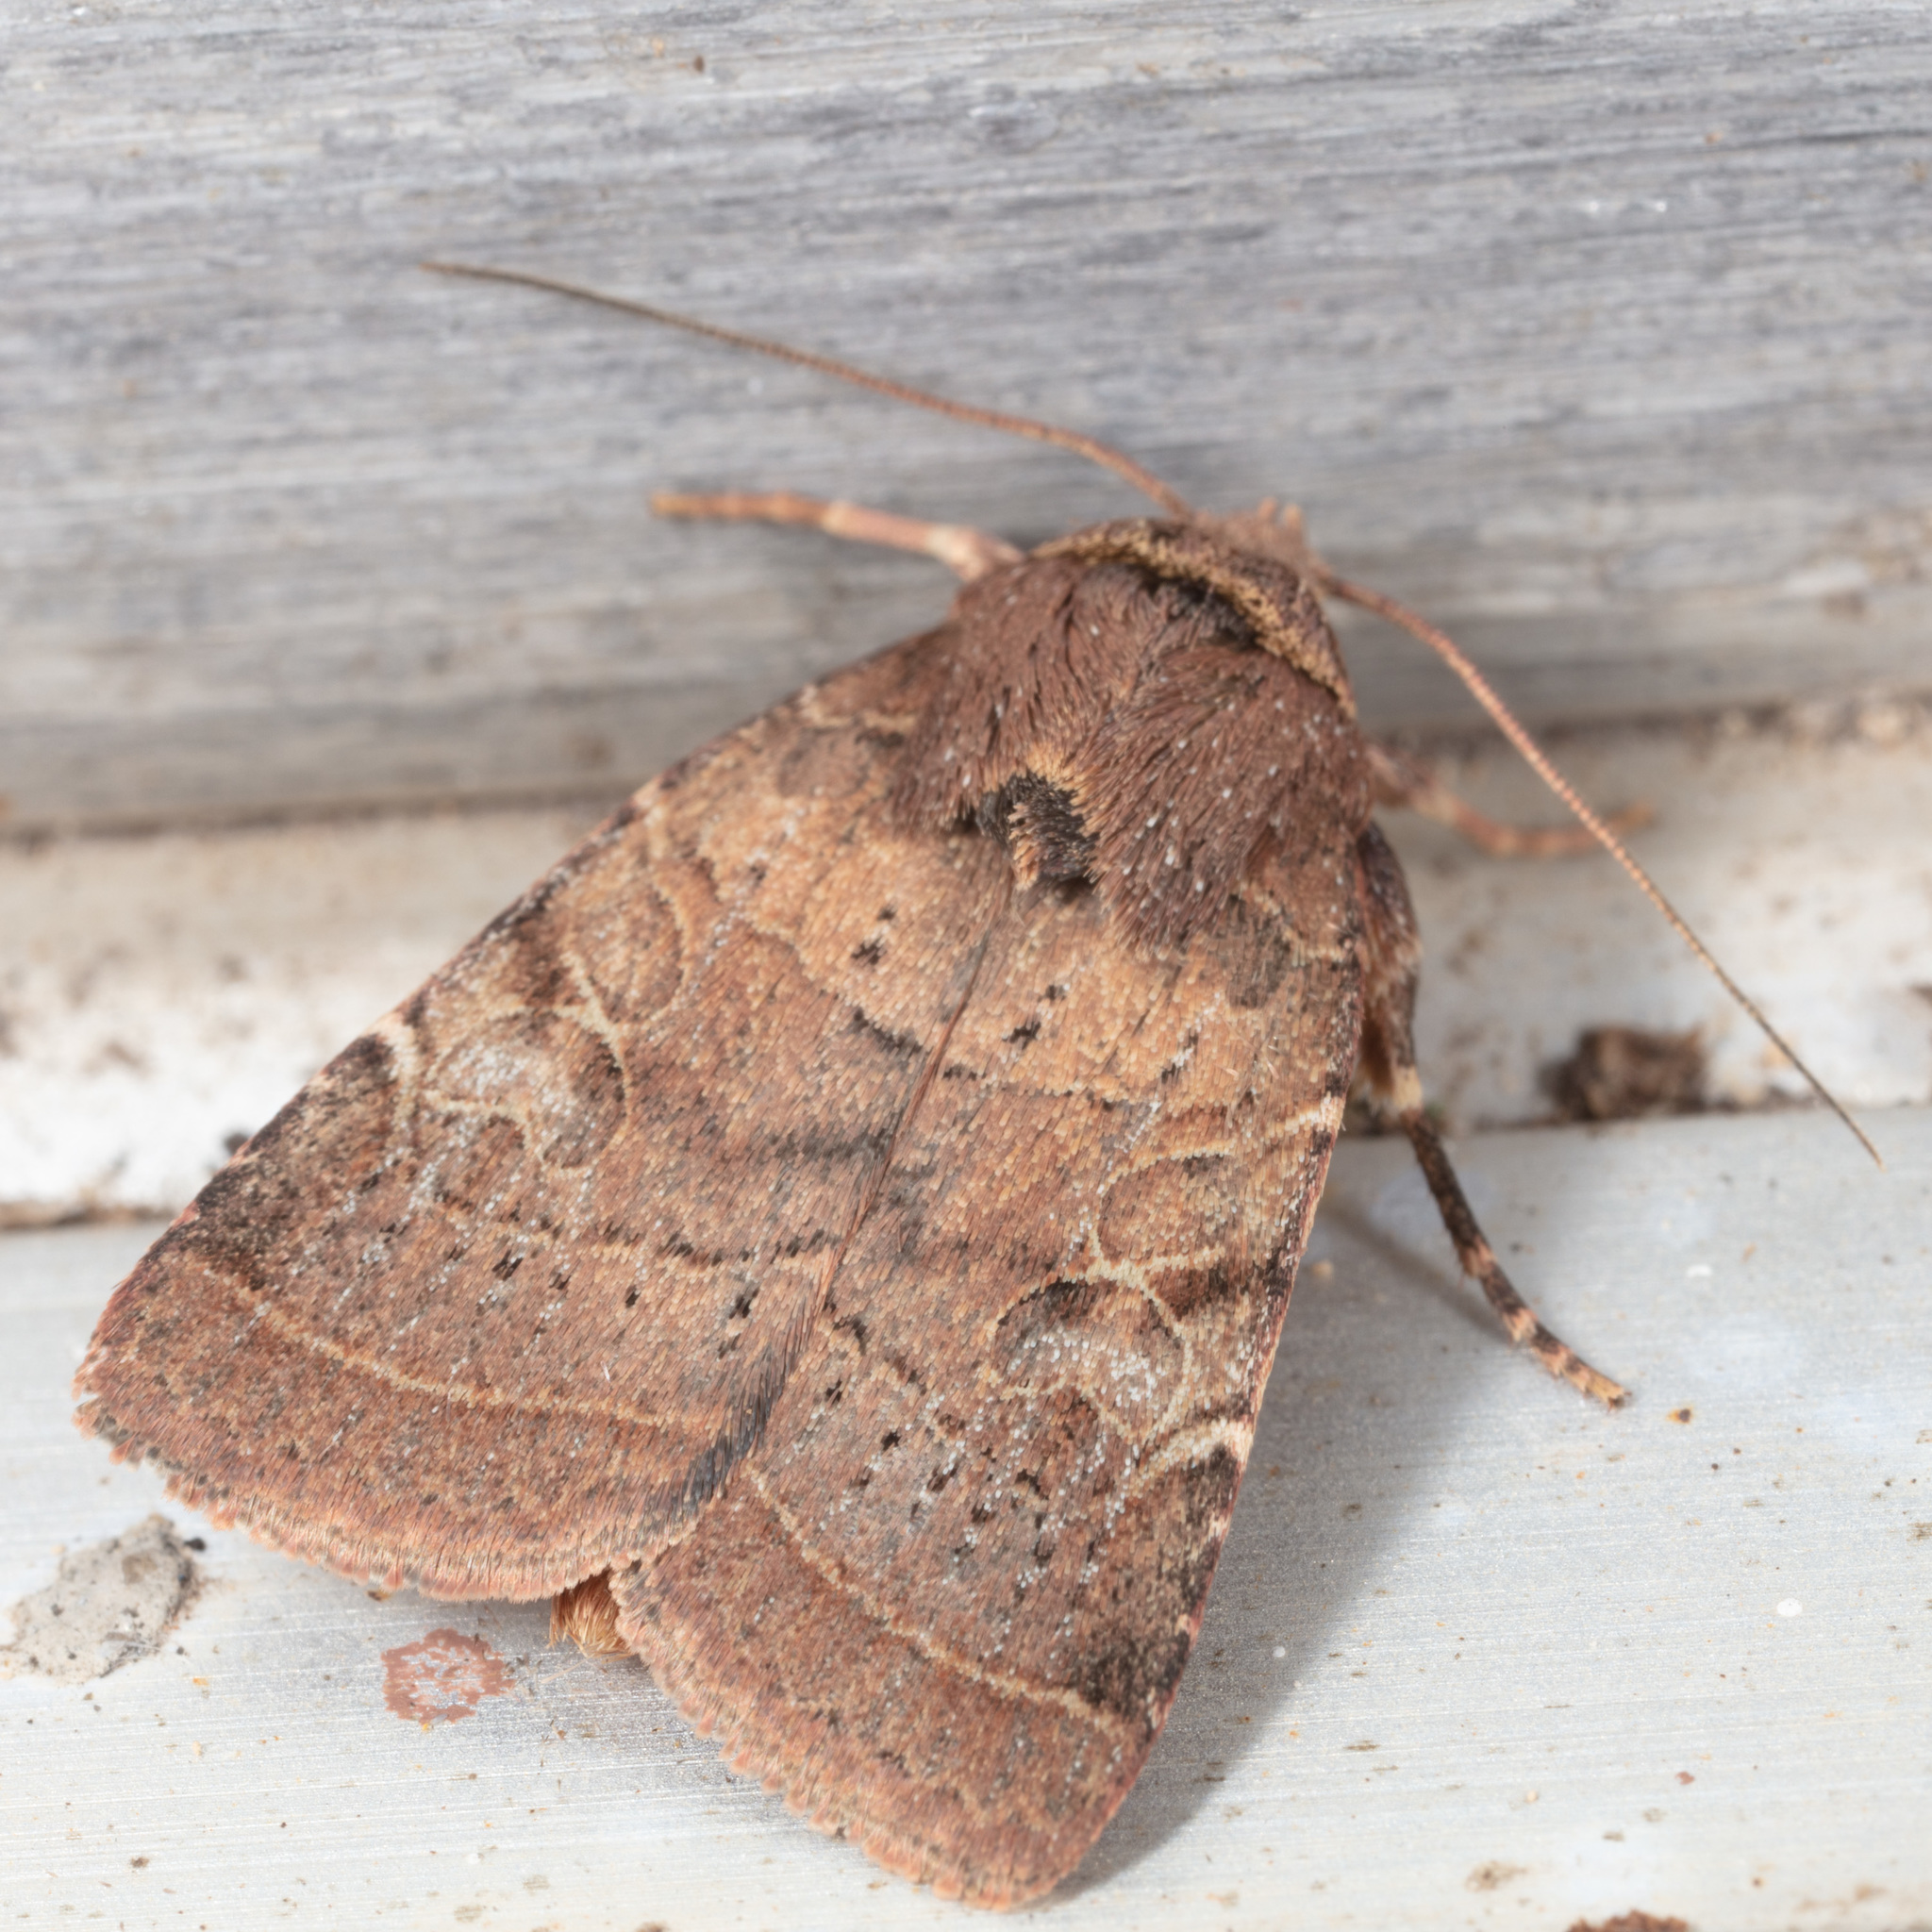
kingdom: Animalia
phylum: Arthropoda
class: Insecta
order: Lepidoptera
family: Noctuidae
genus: Orthodes
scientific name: Orthodes majuscula
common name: Rustic quaker
